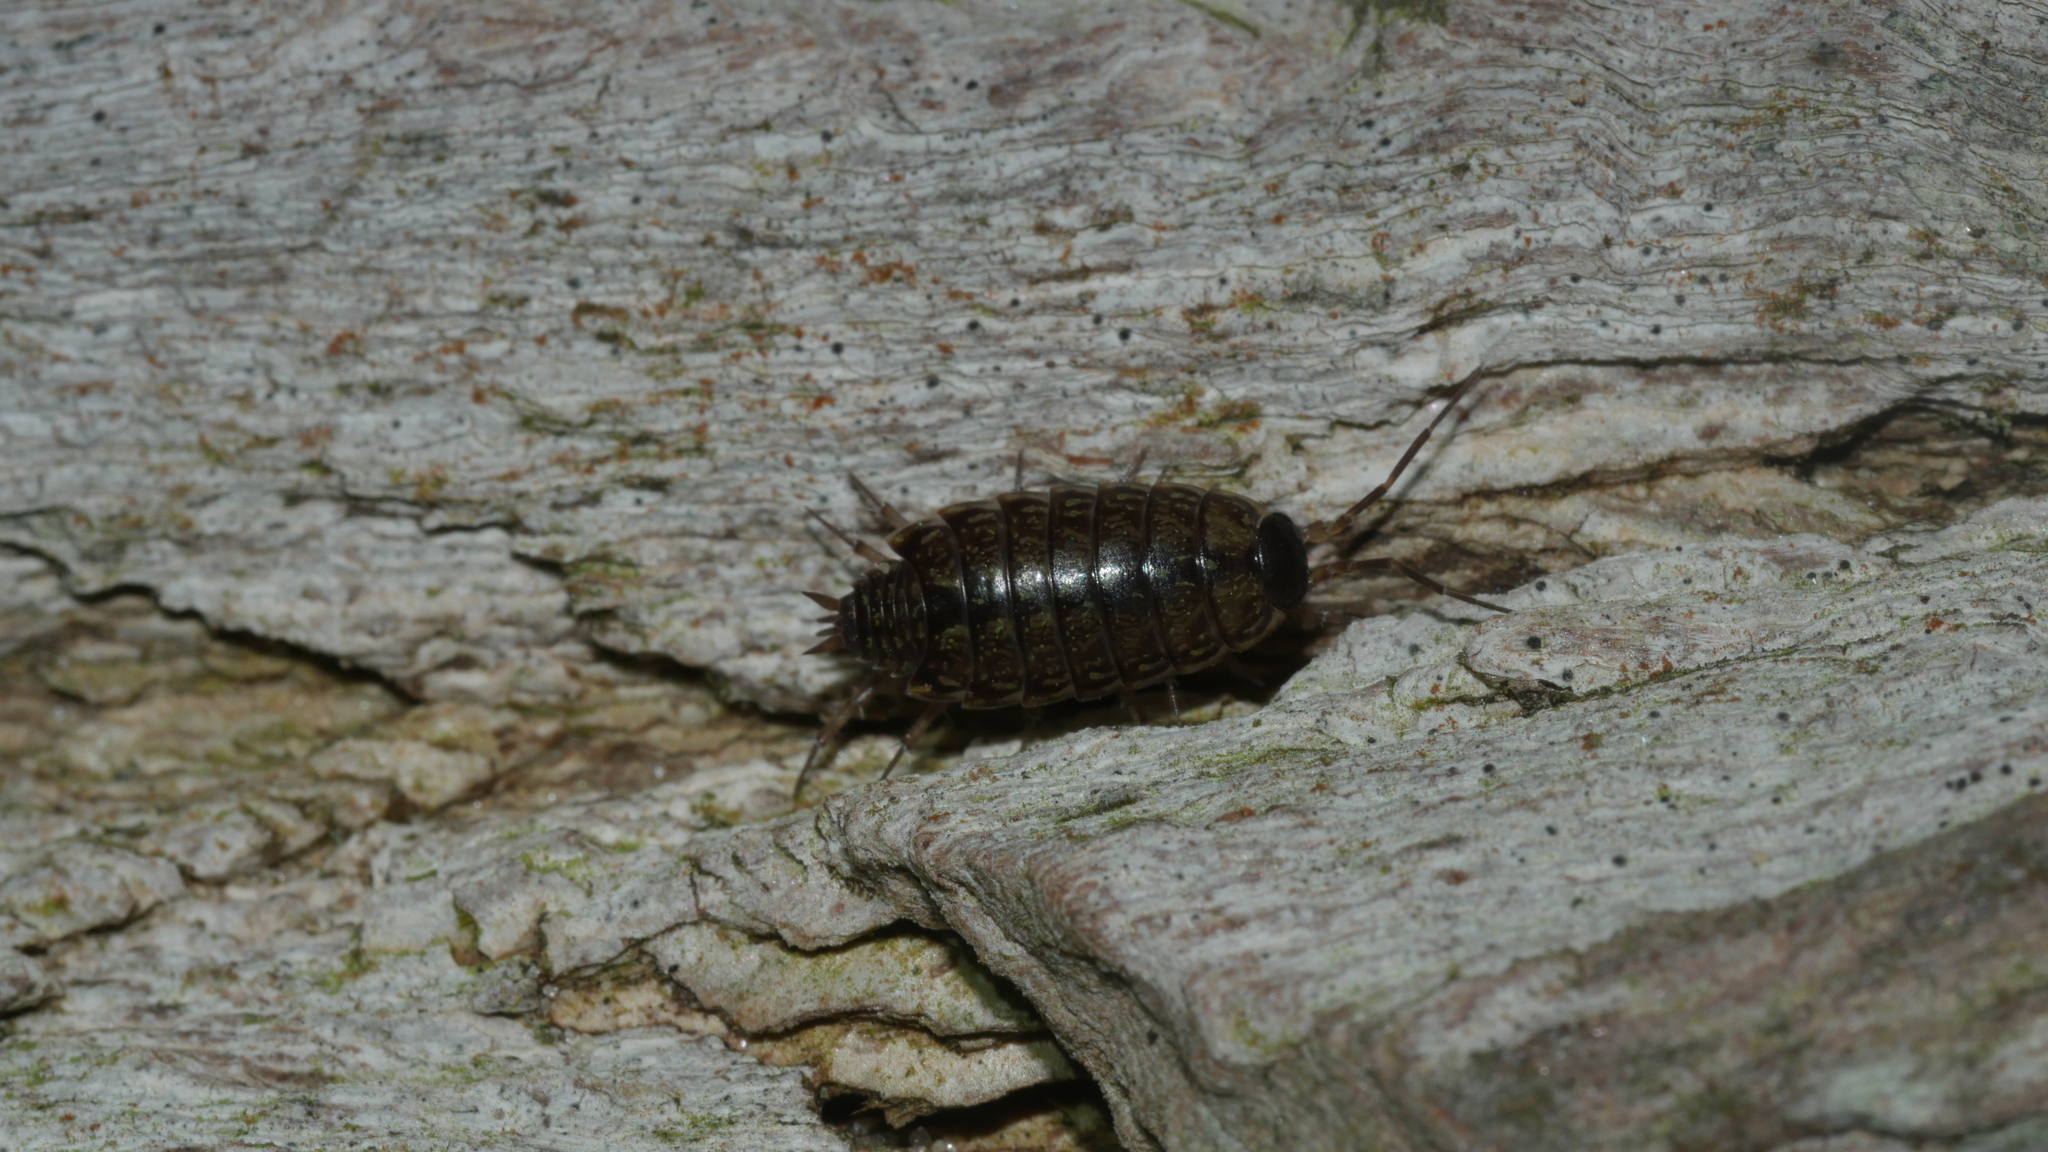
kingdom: Animalia
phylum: Arthropoda
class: Malacostraca
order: Isopoda
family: Philosciidae
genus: Philoscia
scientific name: Philoscia muscorum
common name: Common striped woodlouse
